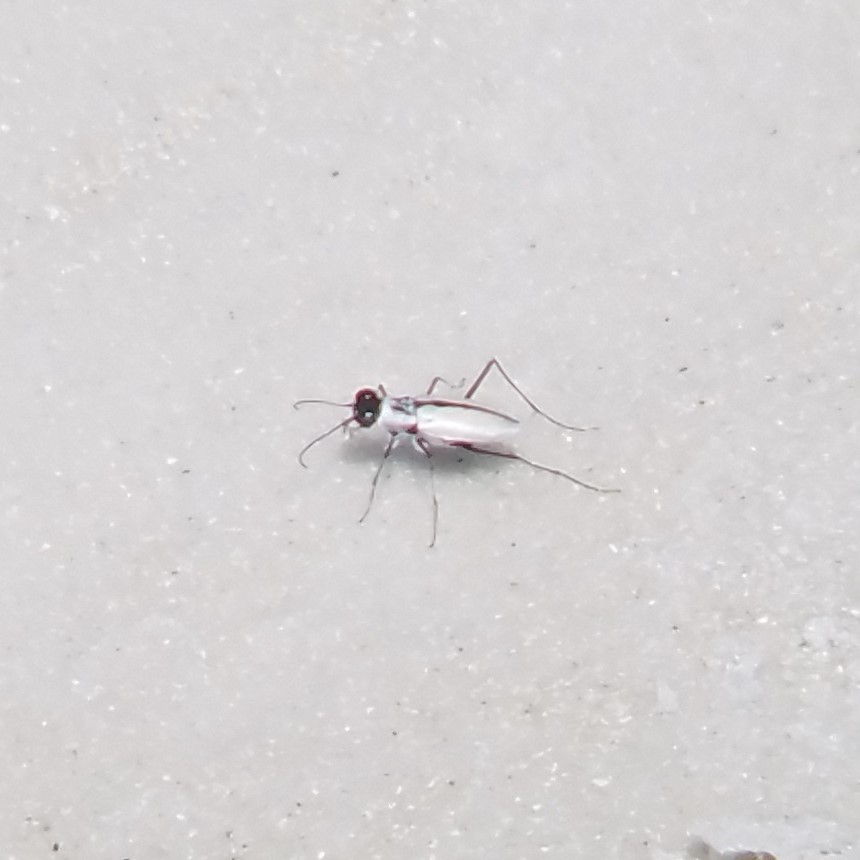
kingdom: Animalia
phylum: Arthropoda
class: Insecta
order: Coleoptera
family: Carabidae
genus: Habroscelimorpha
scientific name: Habroscelimorpha dorsalis
